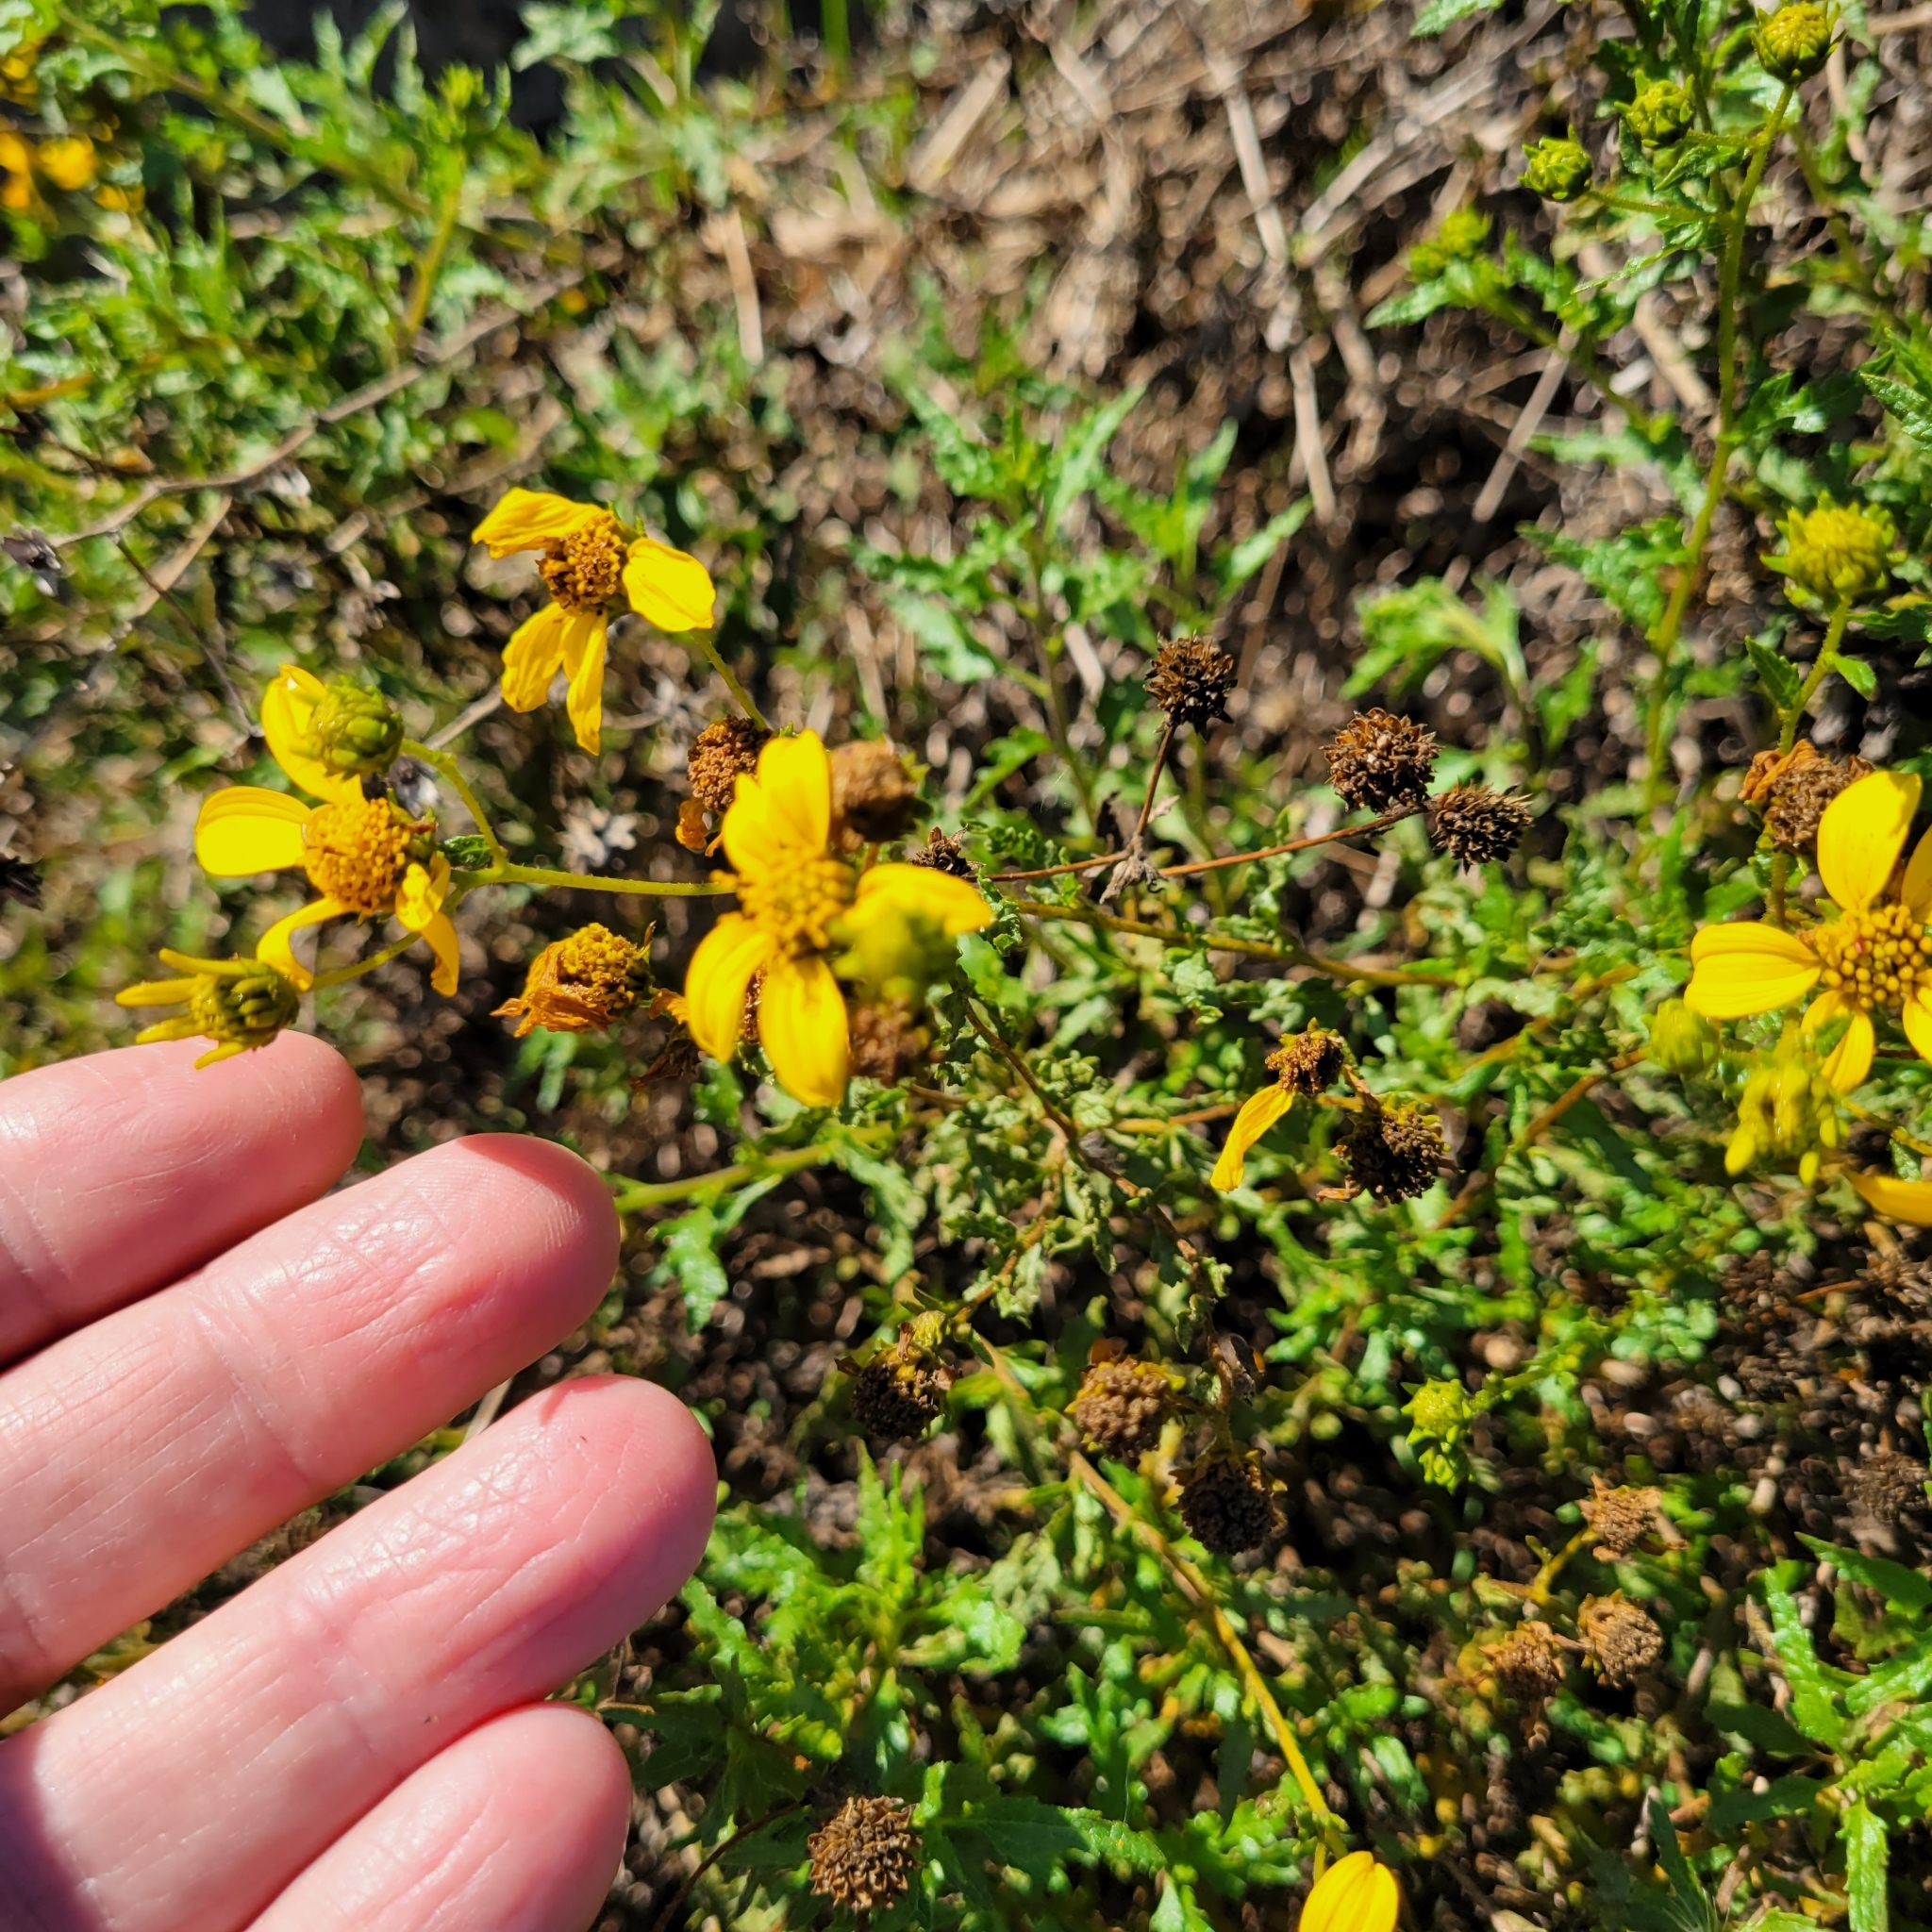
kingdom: Plantae
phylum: Tracheophyta
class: Magnoliopsida
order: Asterales
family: Asteraceae
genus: Bahiopsis
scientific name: Bahiopsis laciniata
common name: San diego county viguiera
